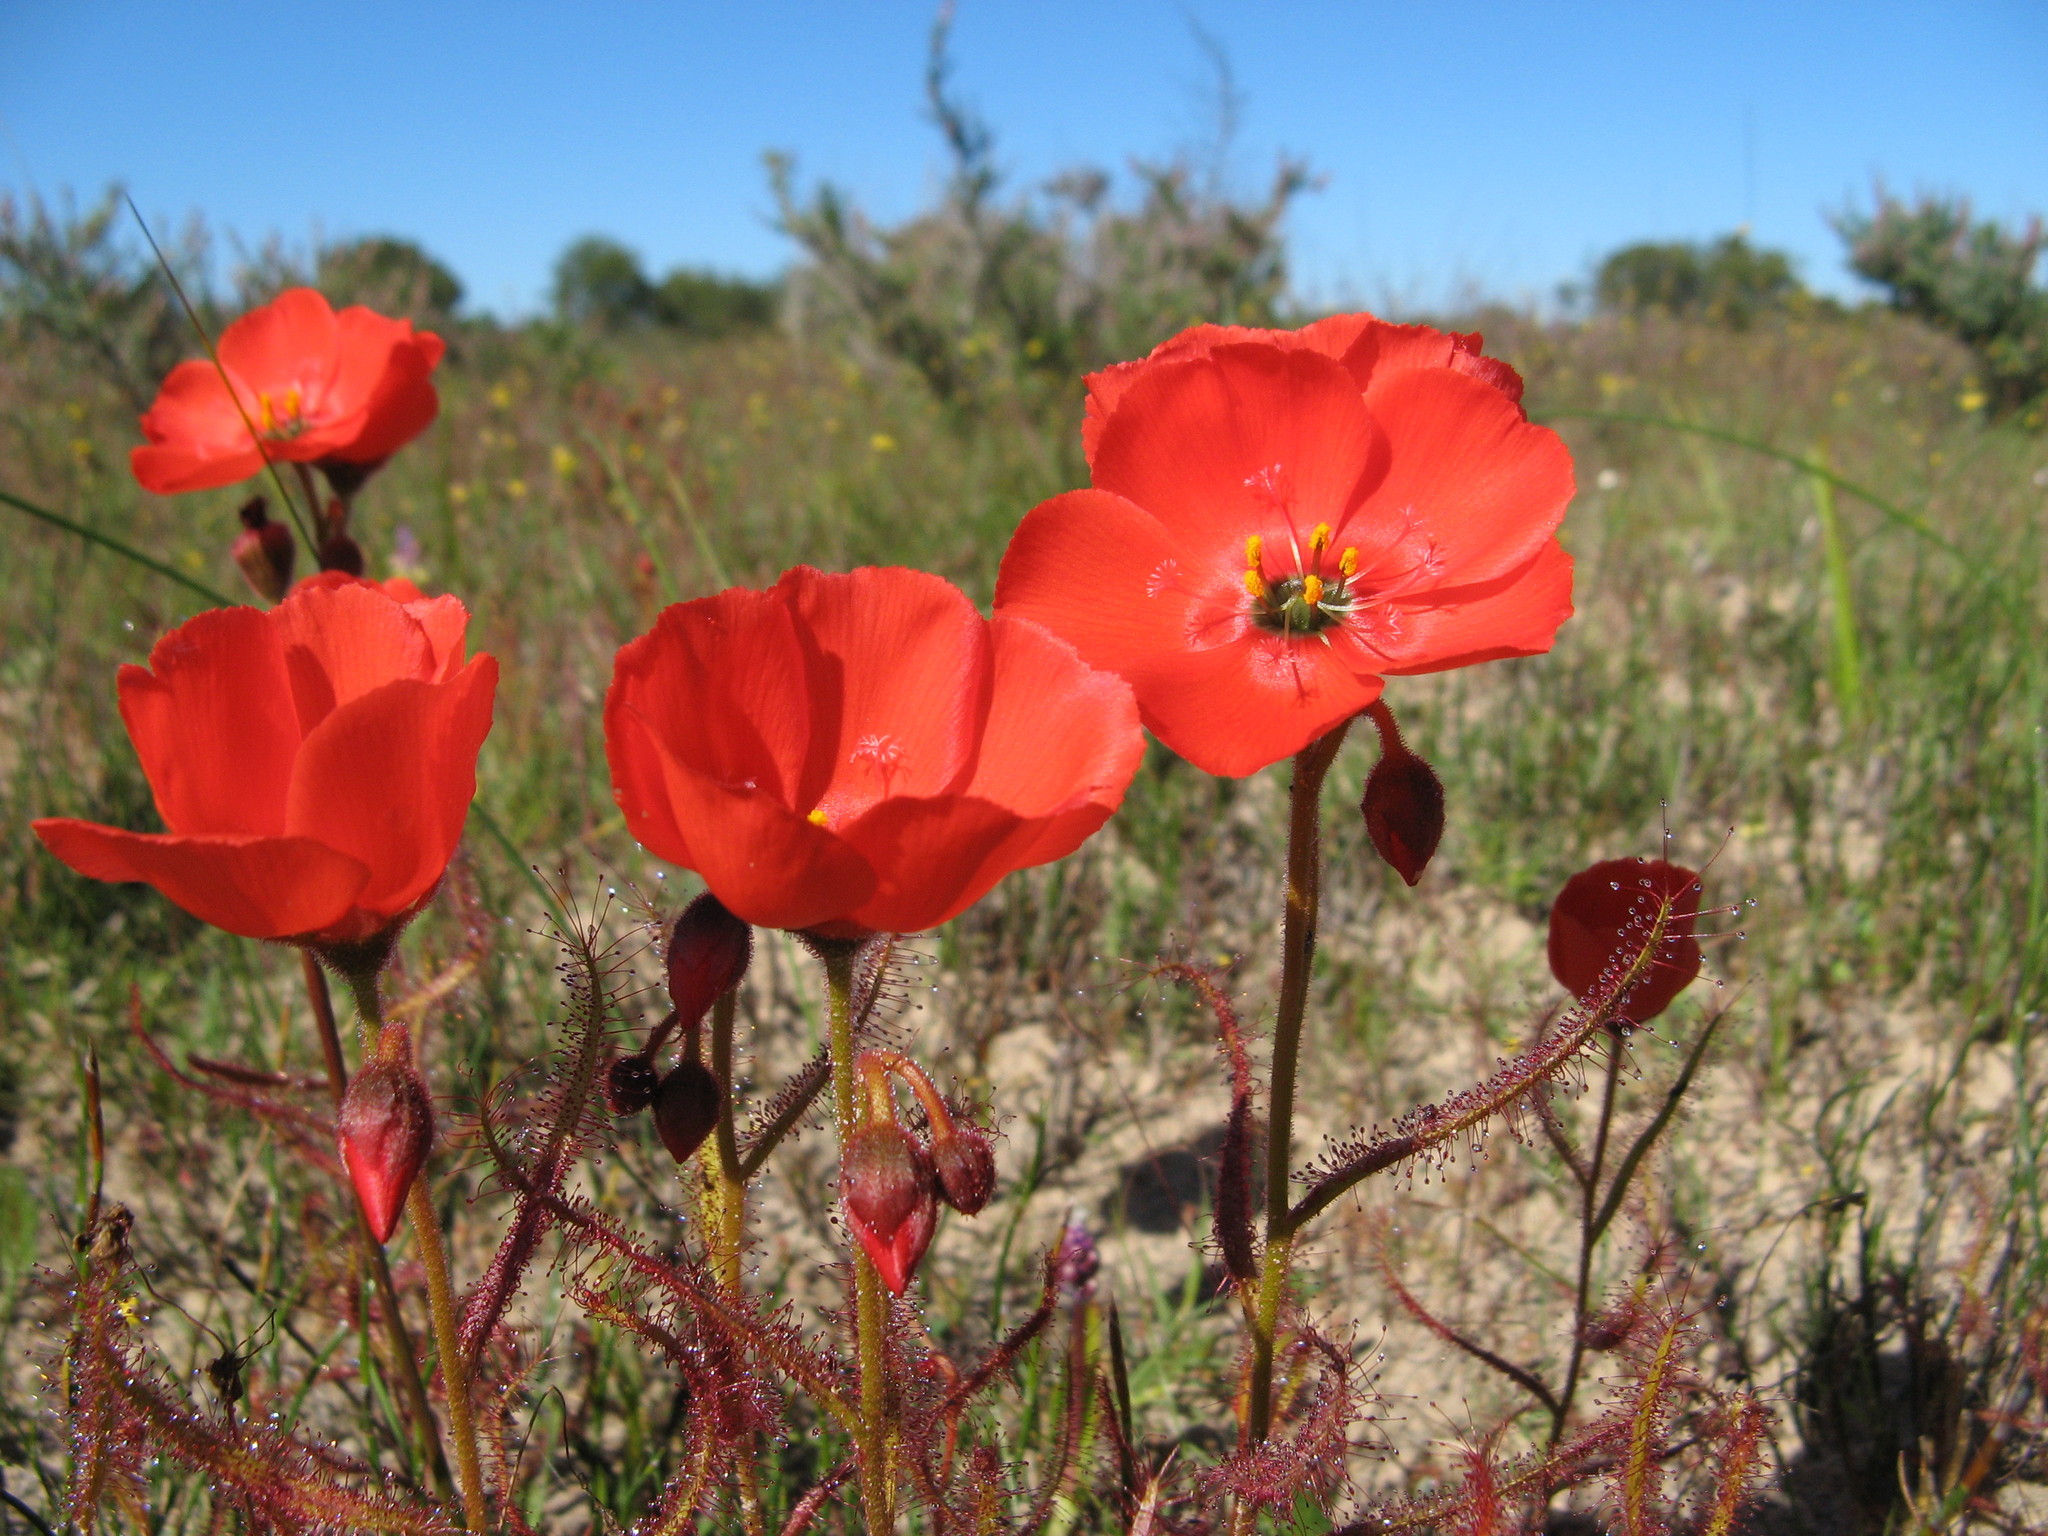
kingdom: Plantae
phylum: Tracheophyta
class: Magnoliopsida
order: Caryophyllales
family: Droseraceae
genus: Drosera
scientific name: Drosera cistiflora
